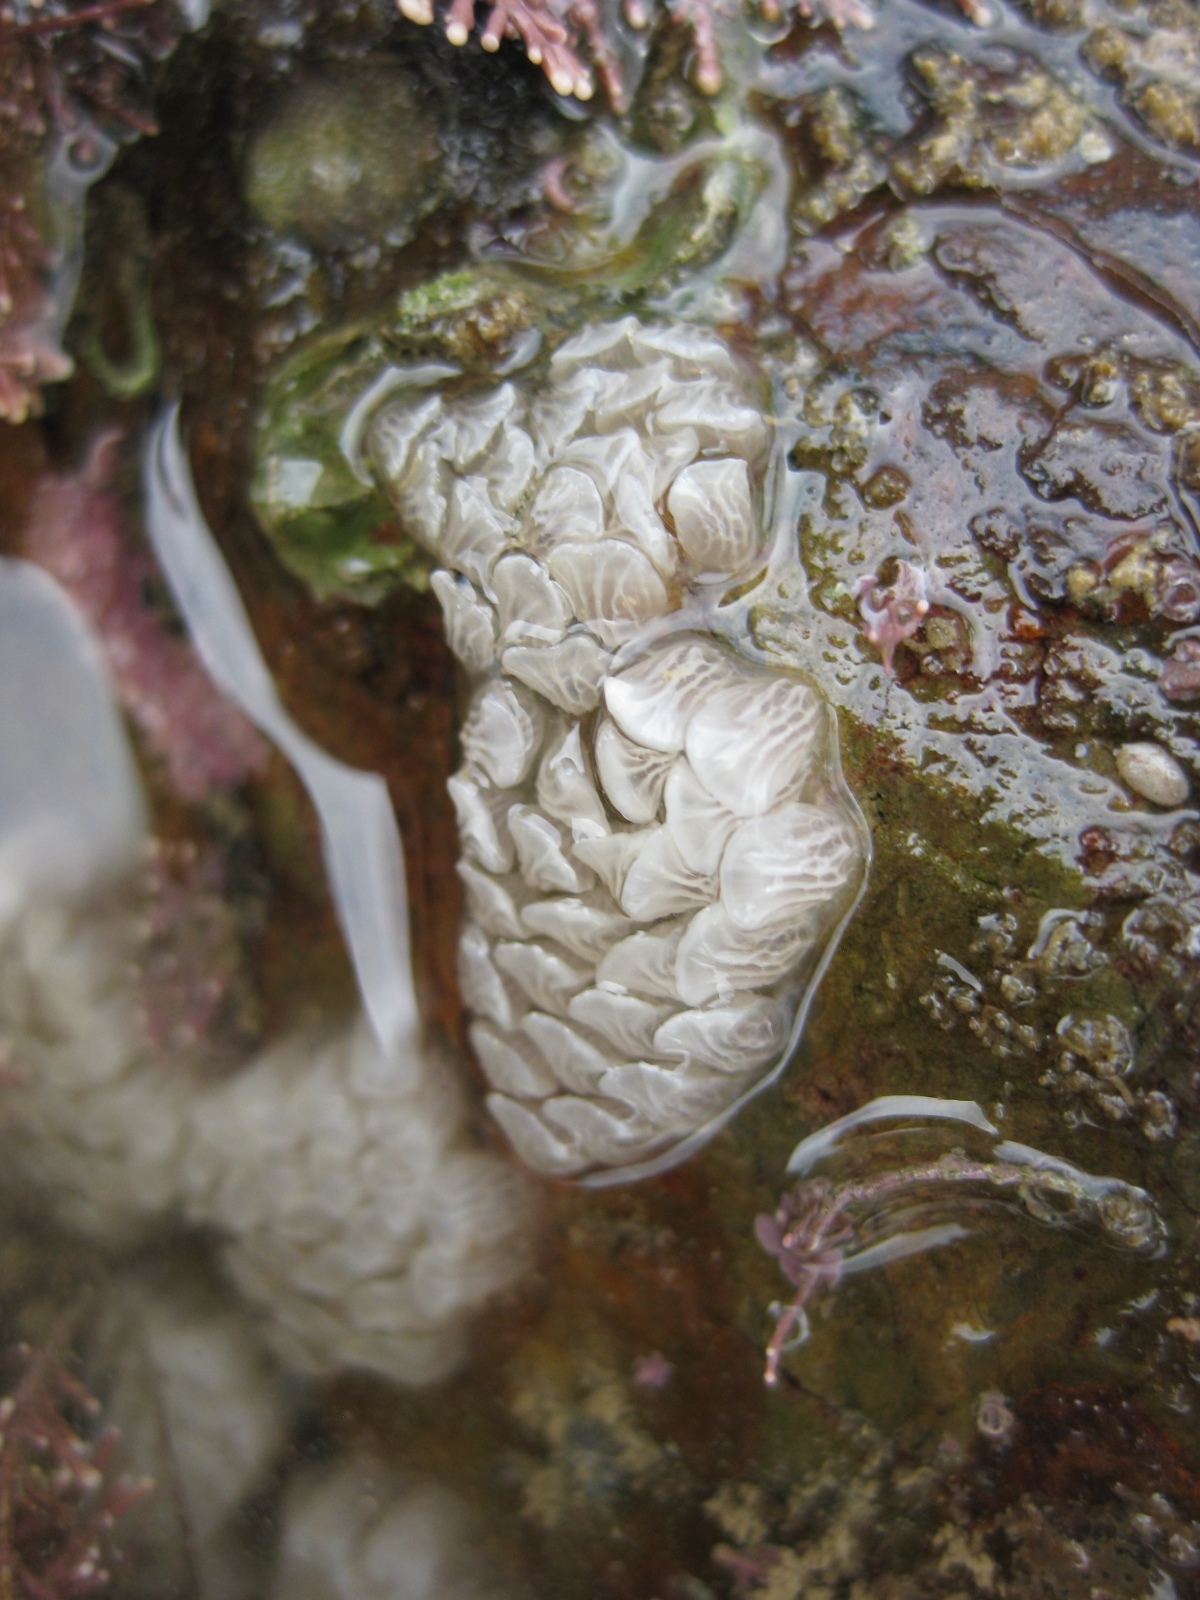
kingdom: Animalia
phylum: Mollusca
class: Gastropoda
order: Neogastropoda
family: Cominellidae
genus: Cominella
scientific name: Cominella virgata
